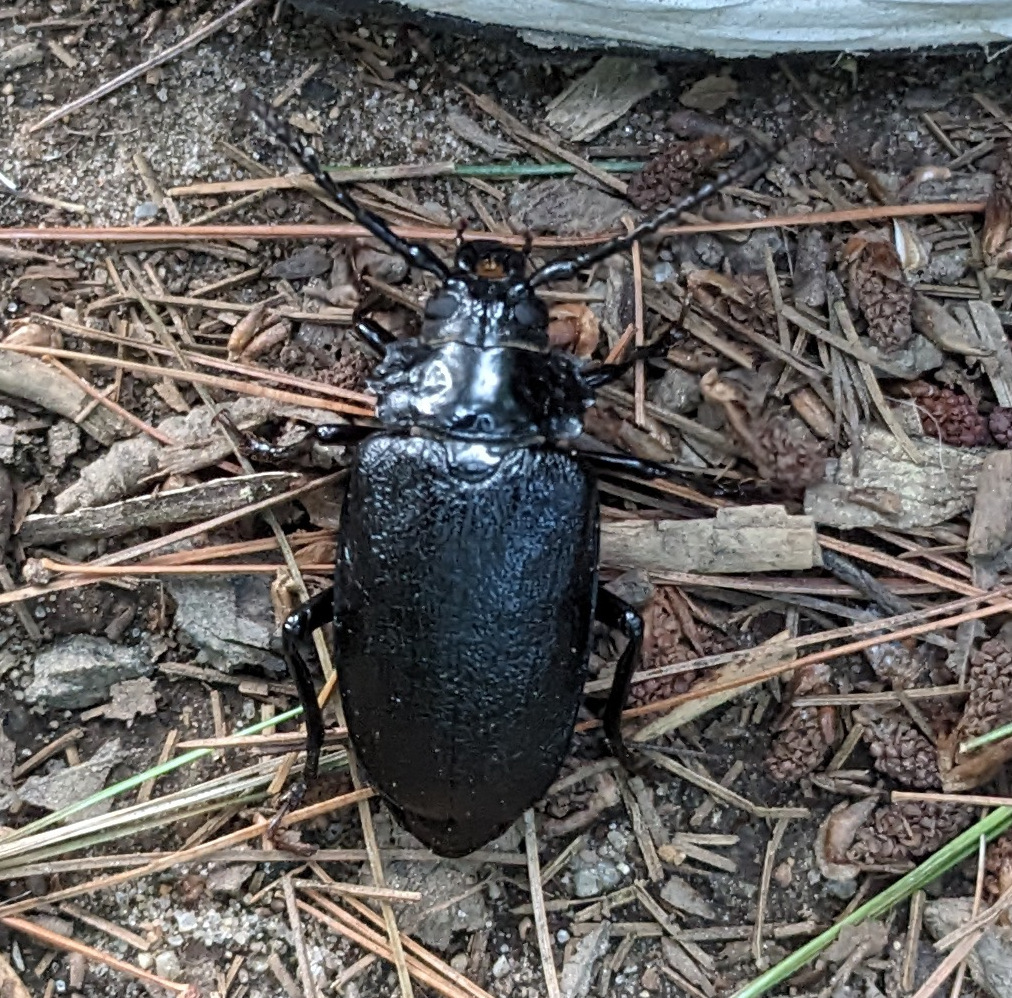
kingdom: Animalia
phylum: Arthropoda
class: Insecta
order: Coleoptera
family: Cerambycidae
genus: Prionus
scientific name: Prionus laticollis
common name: Broad necked prionus
